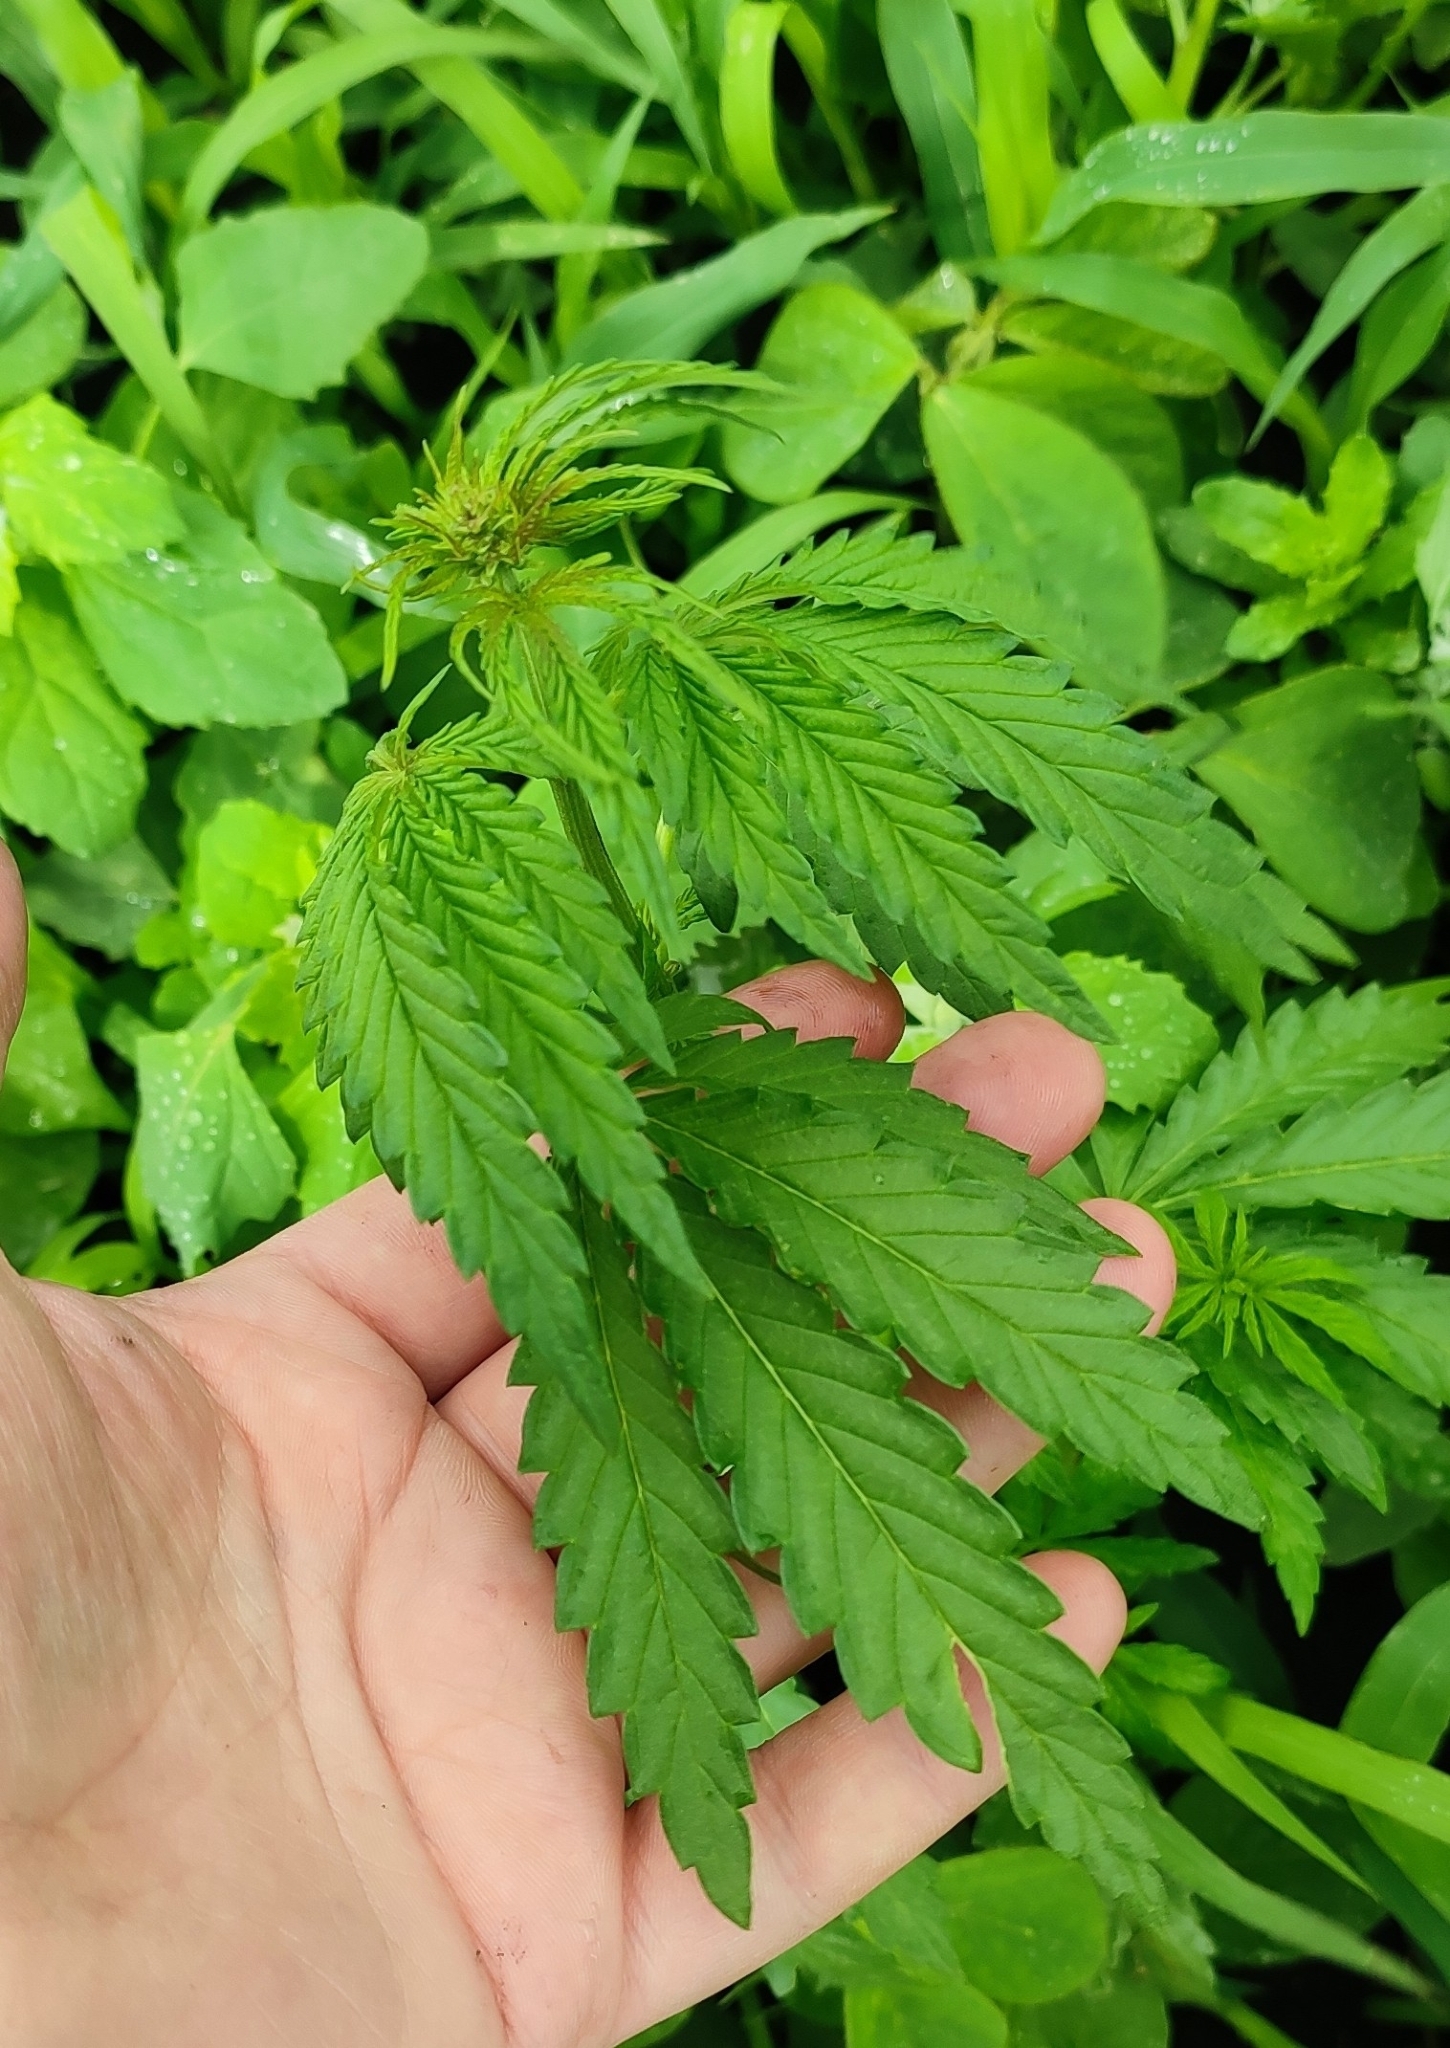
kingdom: Plantae
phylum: Tracheophyta
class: Magnoliopsida
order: Rosales
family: Cannabaceae
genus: Cannabis
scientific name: Cannabis sativa
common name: Hemp
